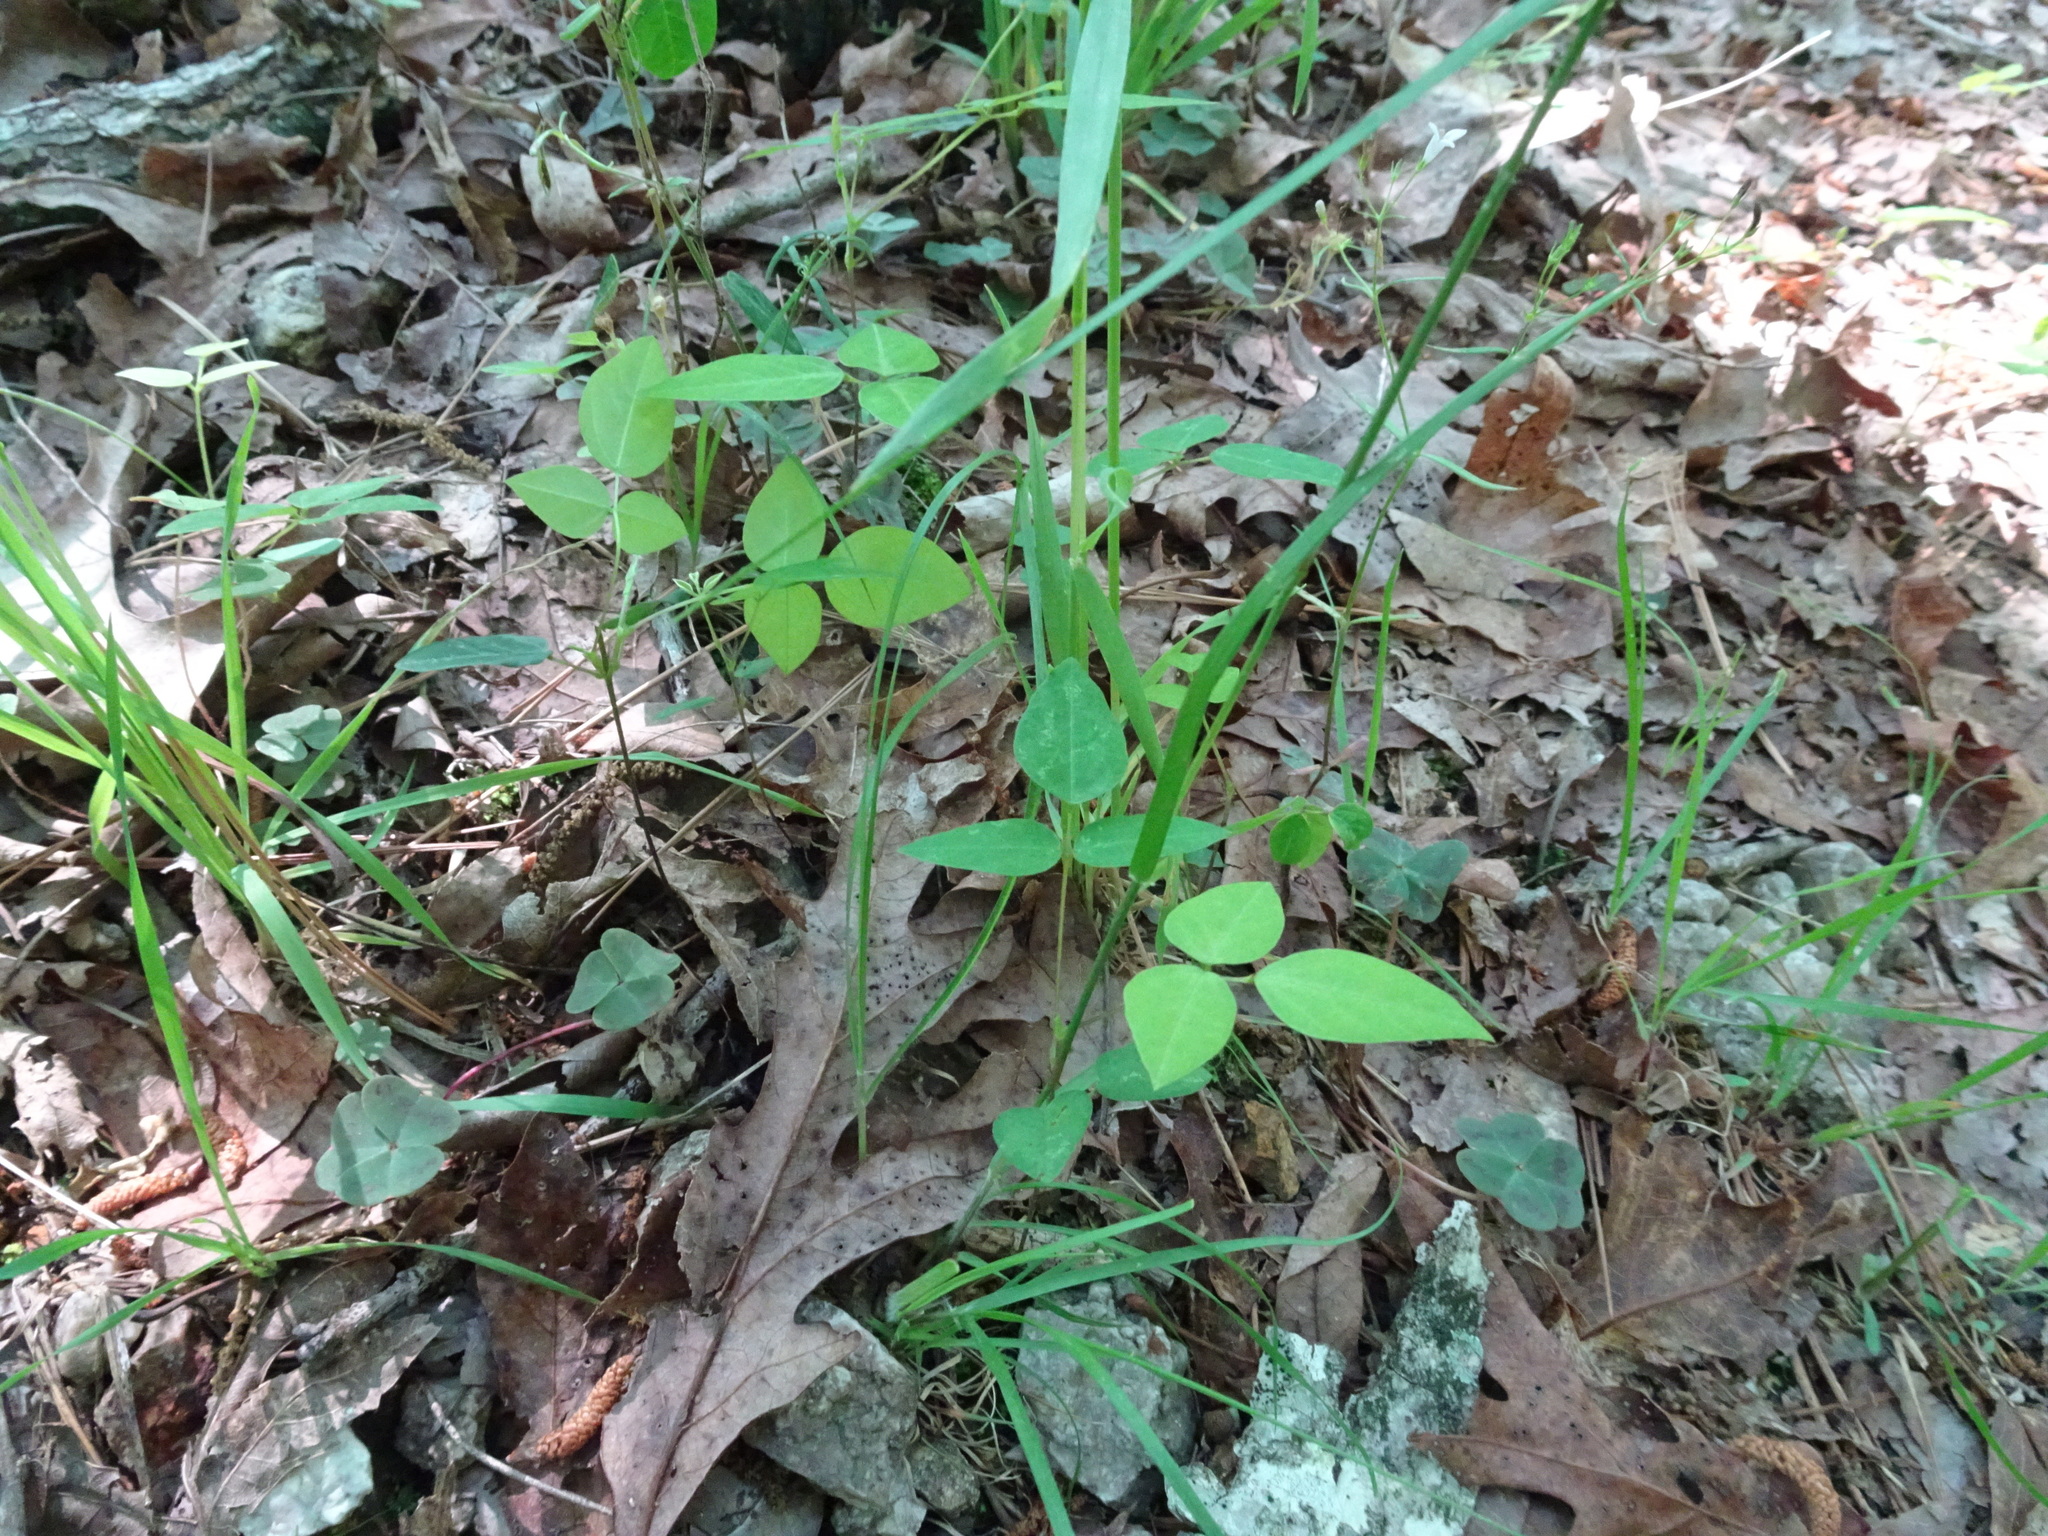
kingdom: Plantae
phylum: Tracheophyta
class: Magnoliopsida
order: Fabales
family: Fabaceae
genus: Amphicarpaea
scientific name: Amphicarpaea bracteata
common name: American hog peanut
